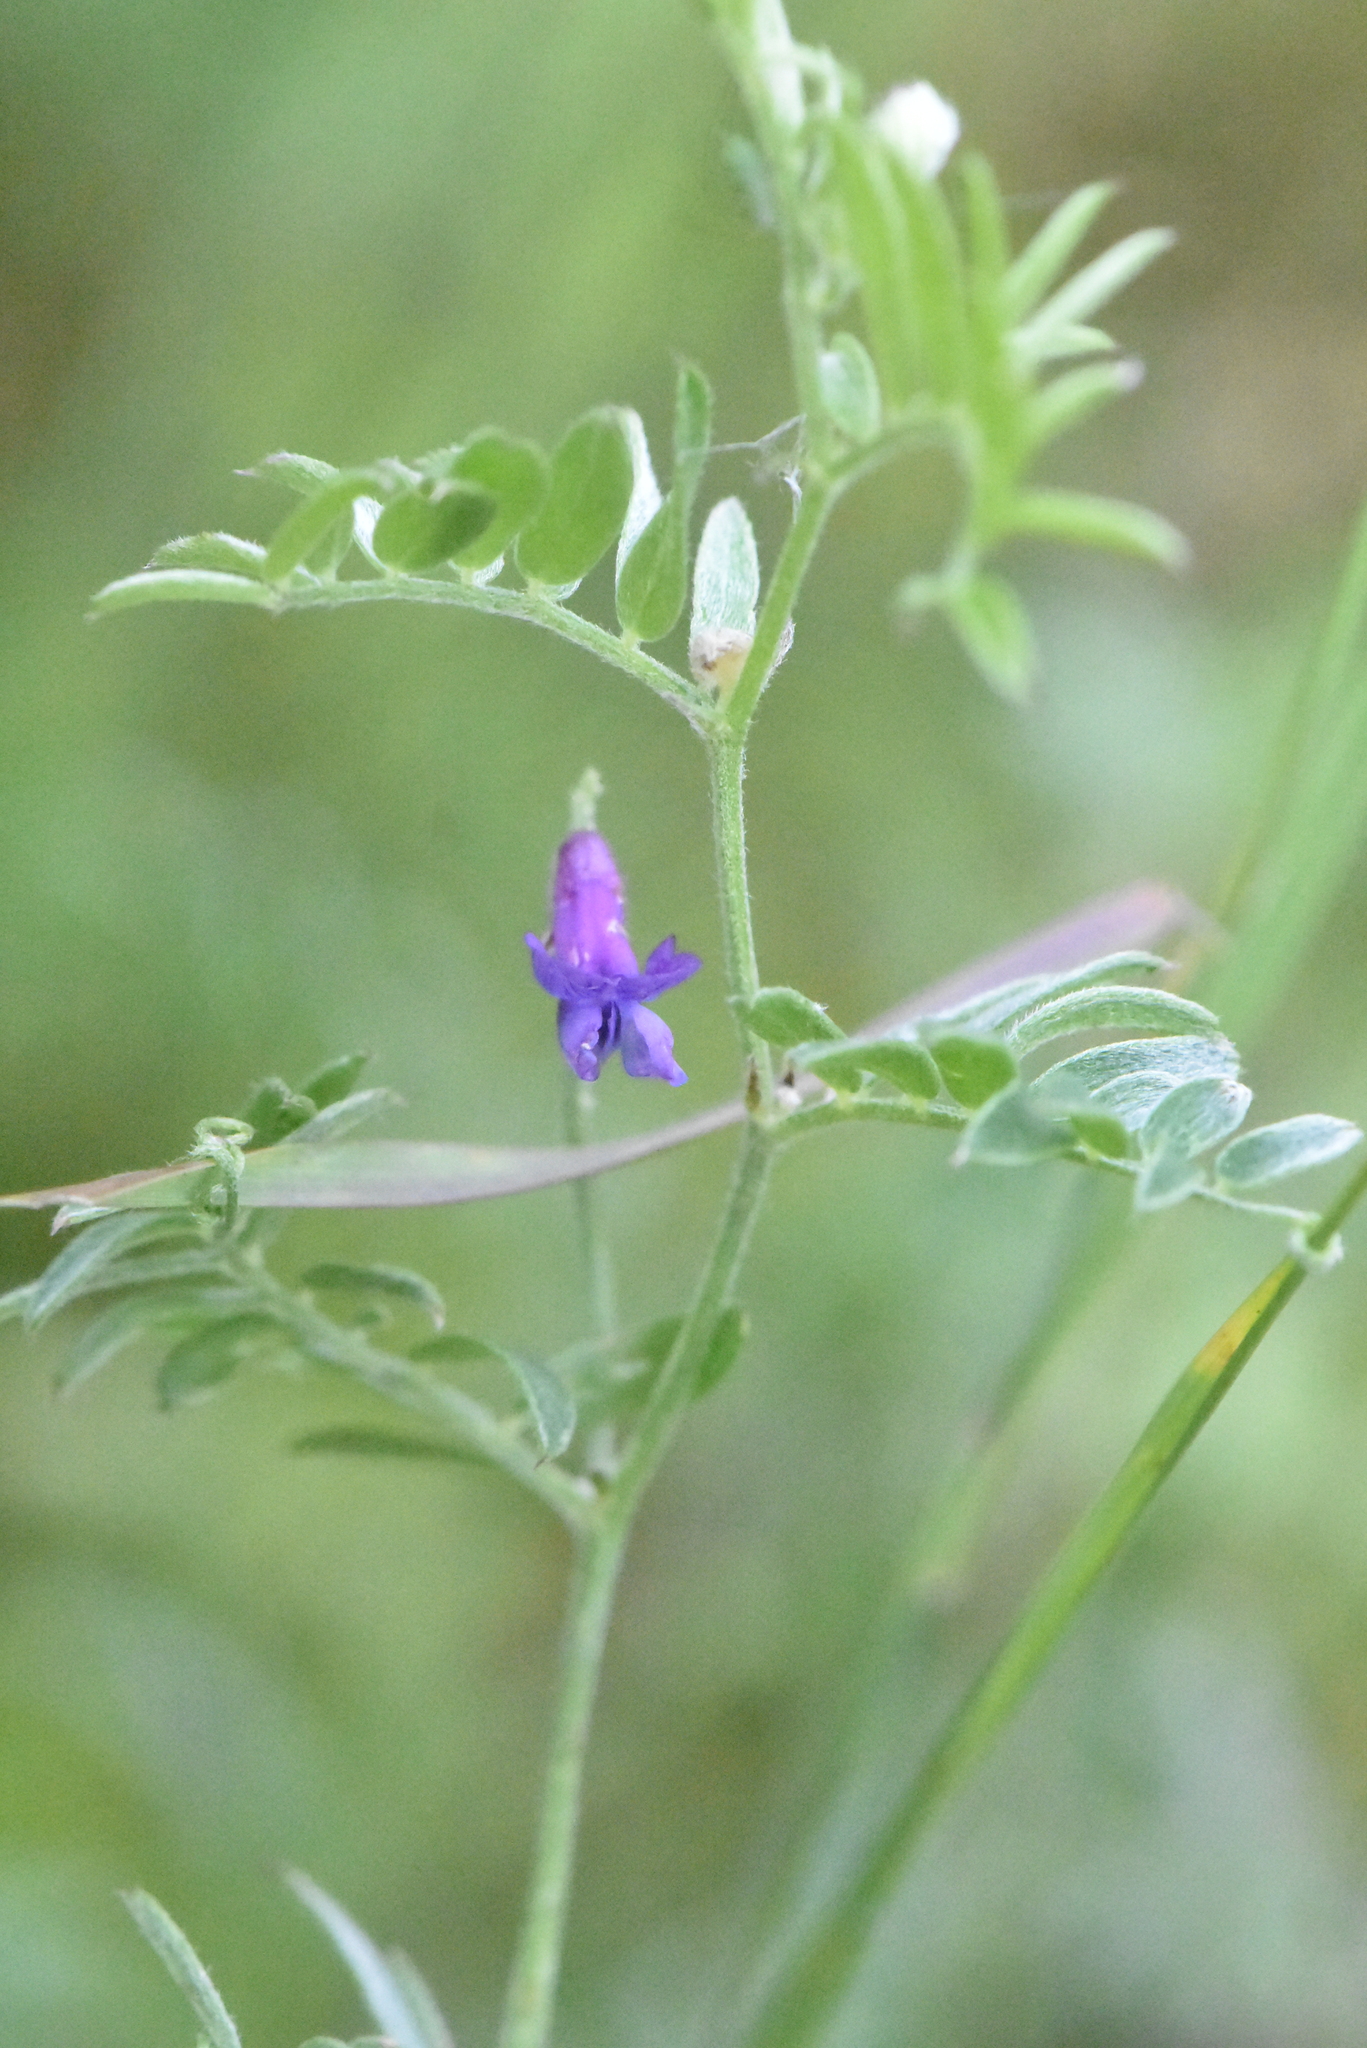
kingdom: Plantae
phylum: Tracheophyta
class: Magnoliopsida
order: Fabales
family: Fabaceae
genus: Vicia
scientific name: Vicia cracca
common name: Bird vetch
